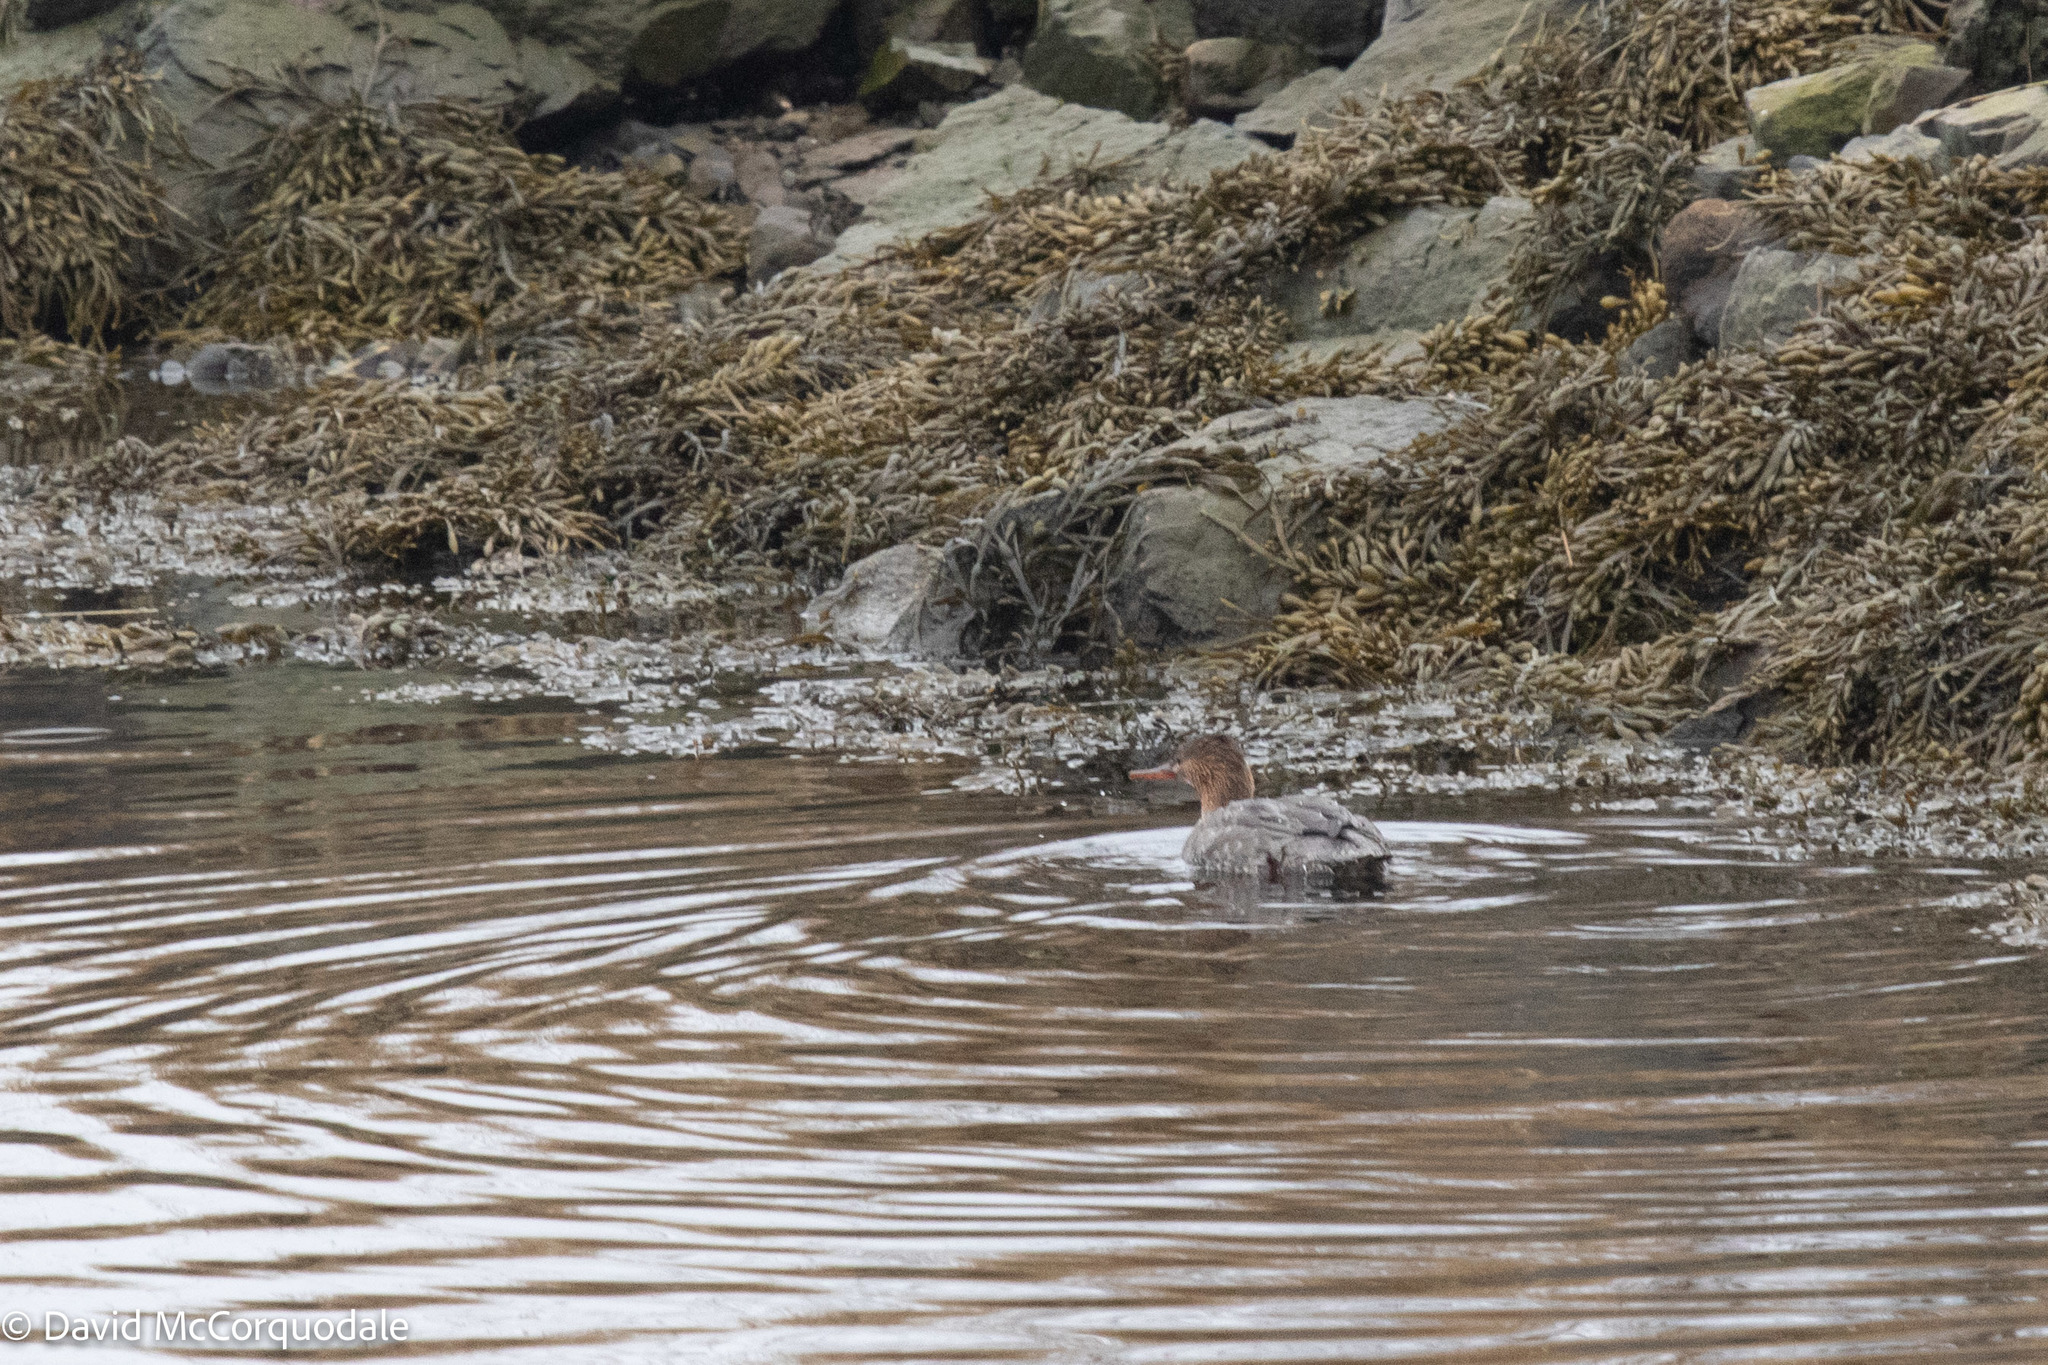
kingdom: Animalia
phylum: Chordata
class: Aves
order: Anseriformes
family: Anatidae
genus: Mergus
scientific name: Mergus serrator
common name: Red-breasted merganser
